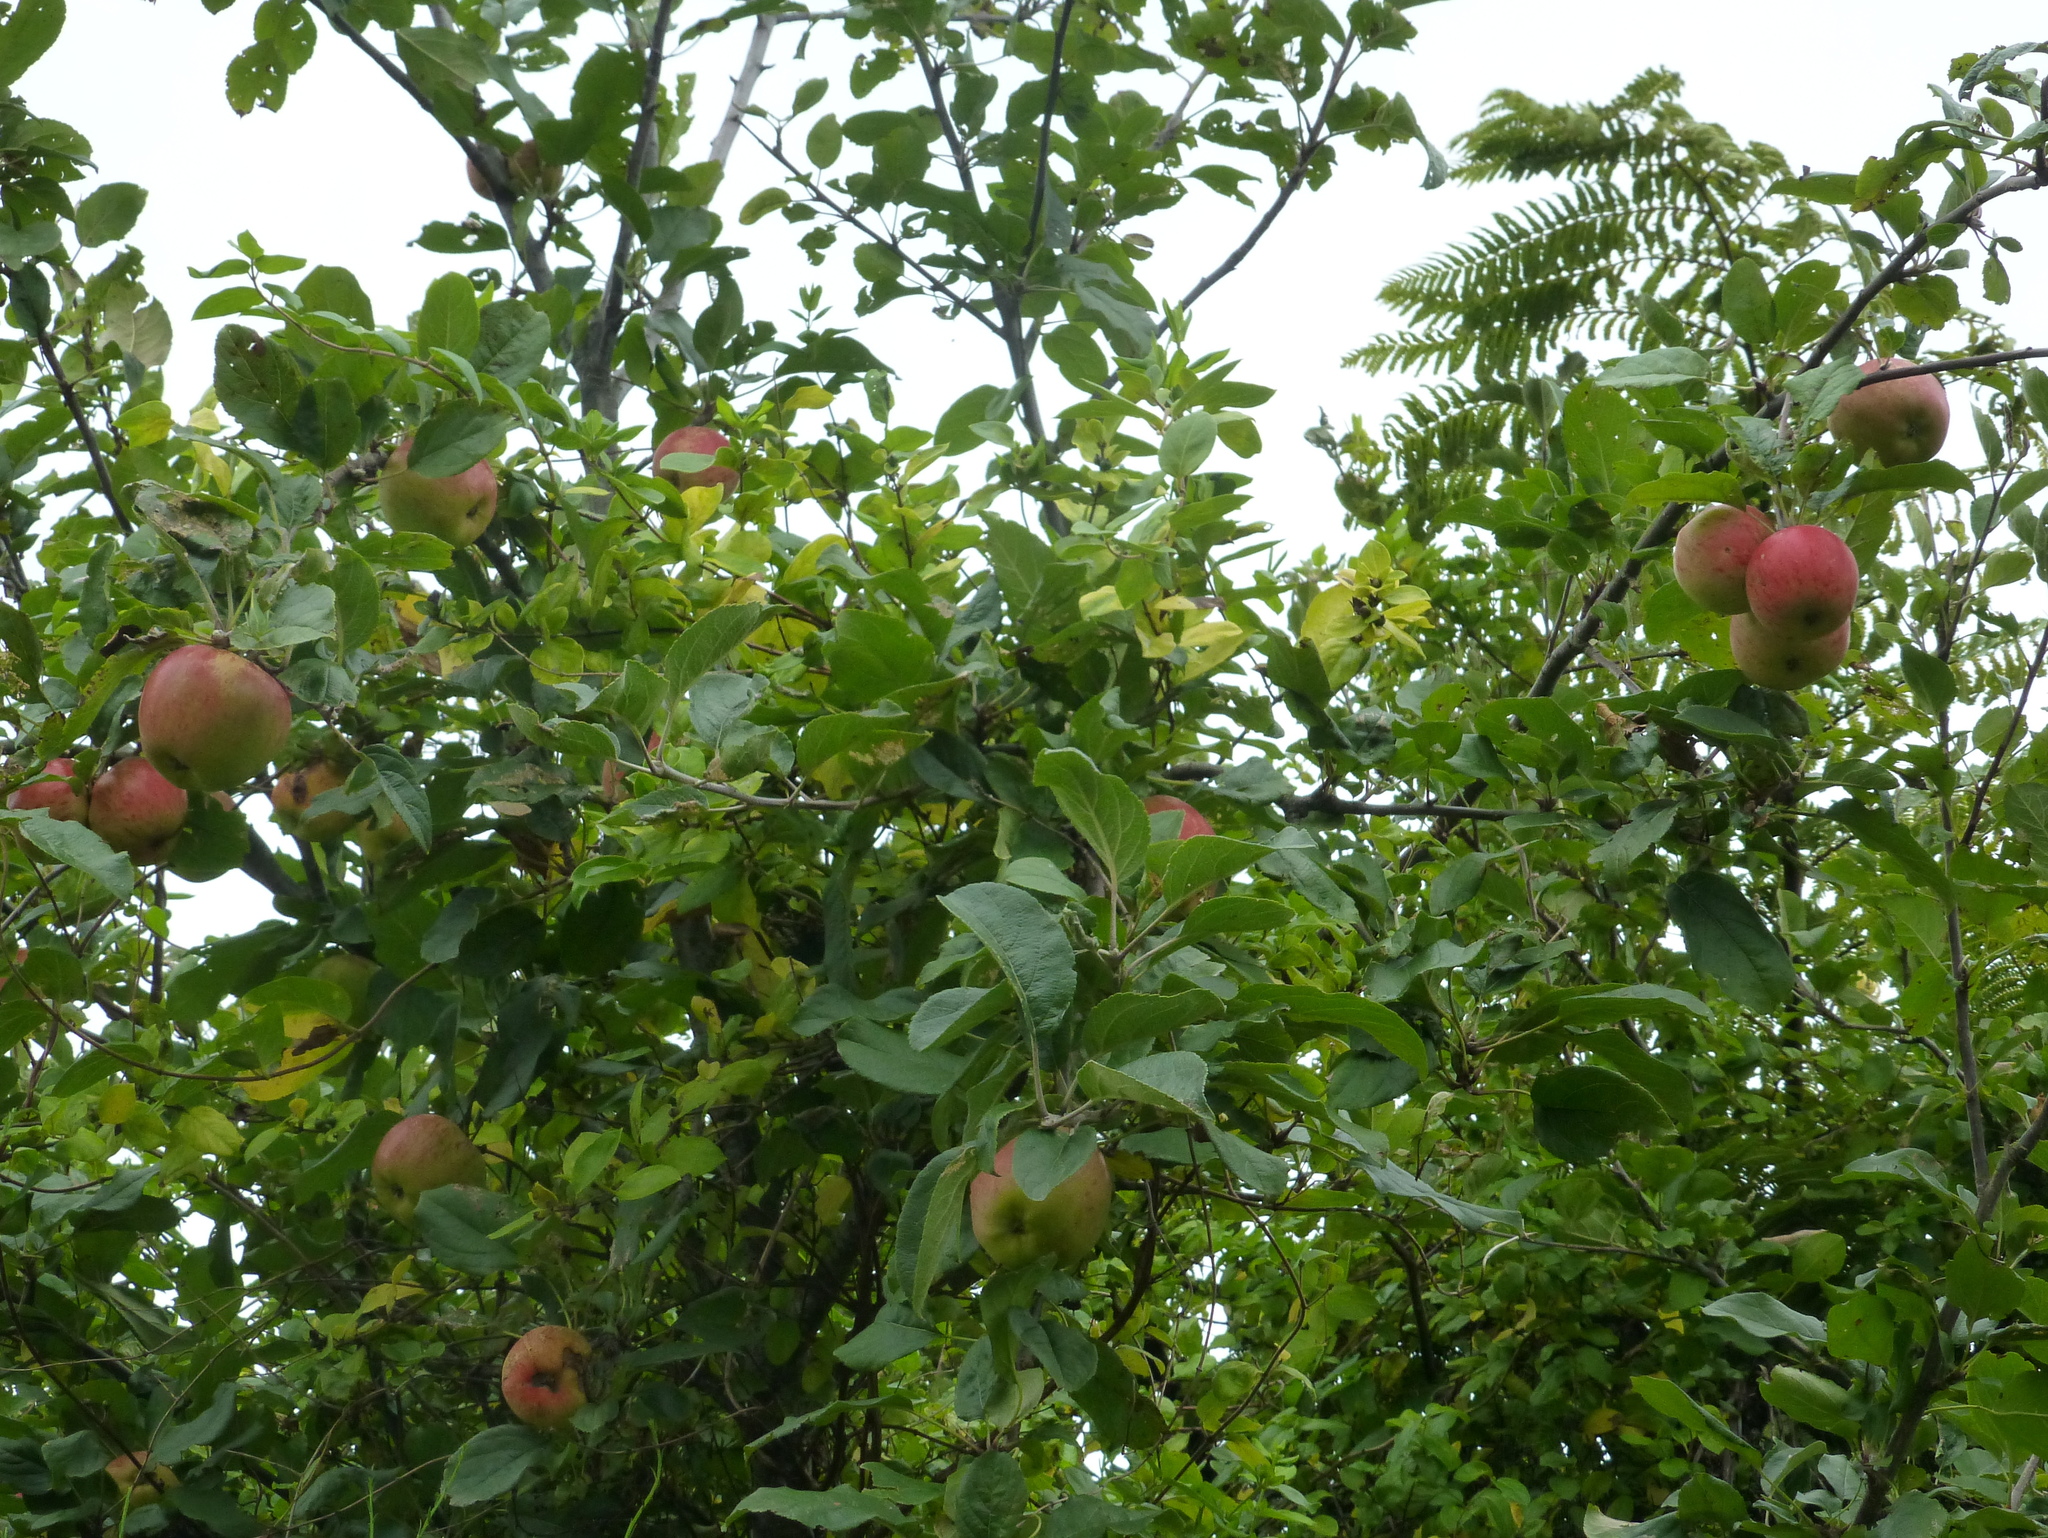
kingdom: Plantae
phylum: Tracheophyta
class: Magnoliopsida
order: Rosales
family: Rosaceae
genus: Malus
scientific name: Malus domestica
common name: Apple
